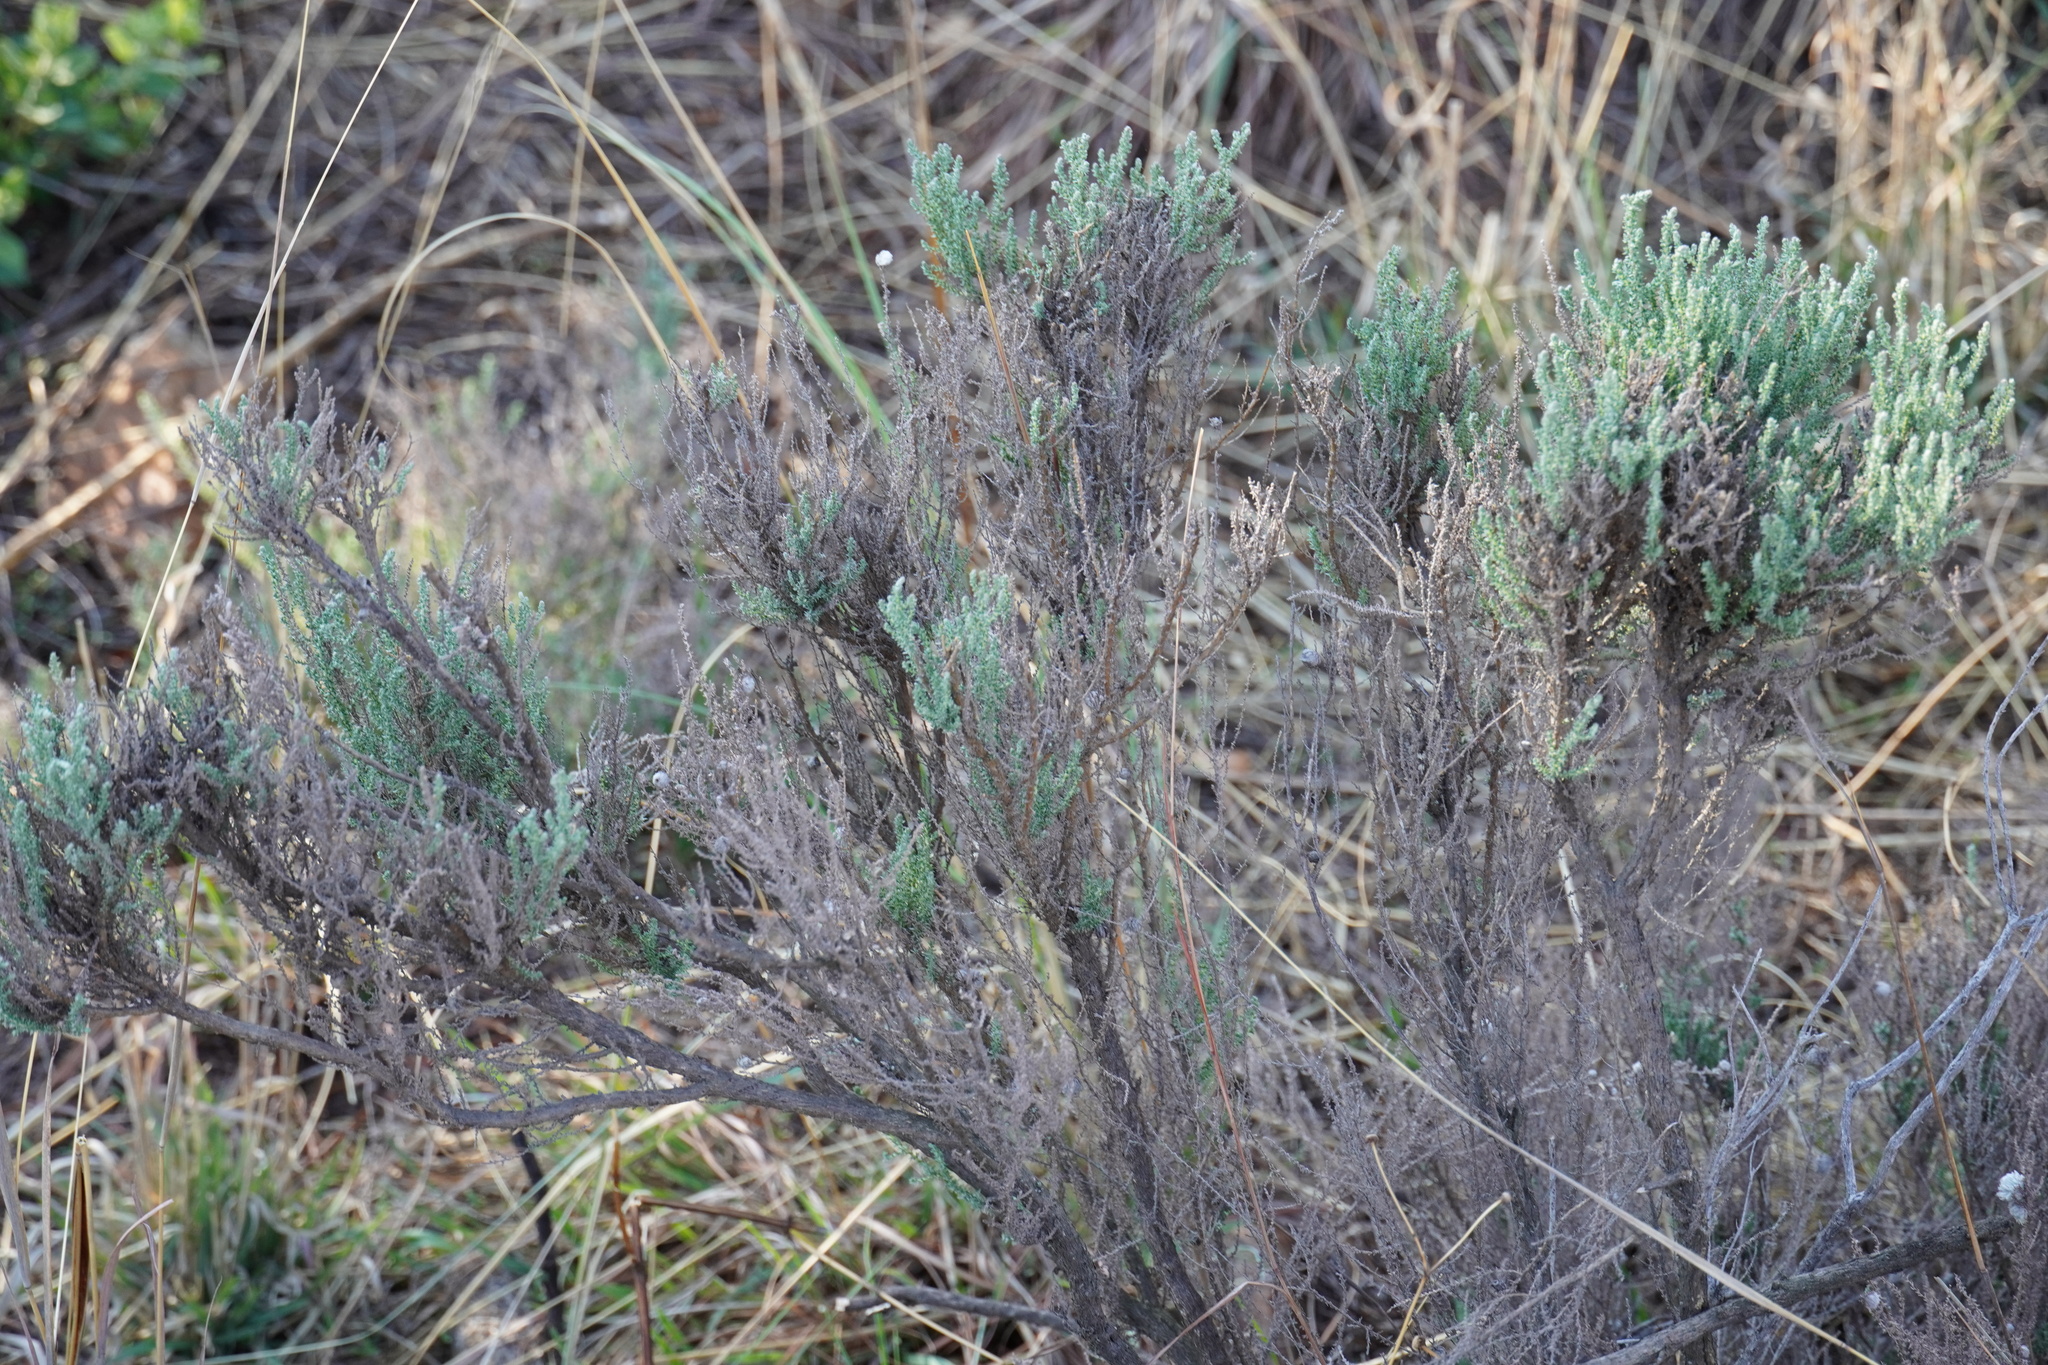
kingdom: Plantae
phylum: Tracheophyta
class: Magnoliopsida
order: Asterales
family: Asteraceae
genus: Seriphium
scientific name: Seriphium plumosum
